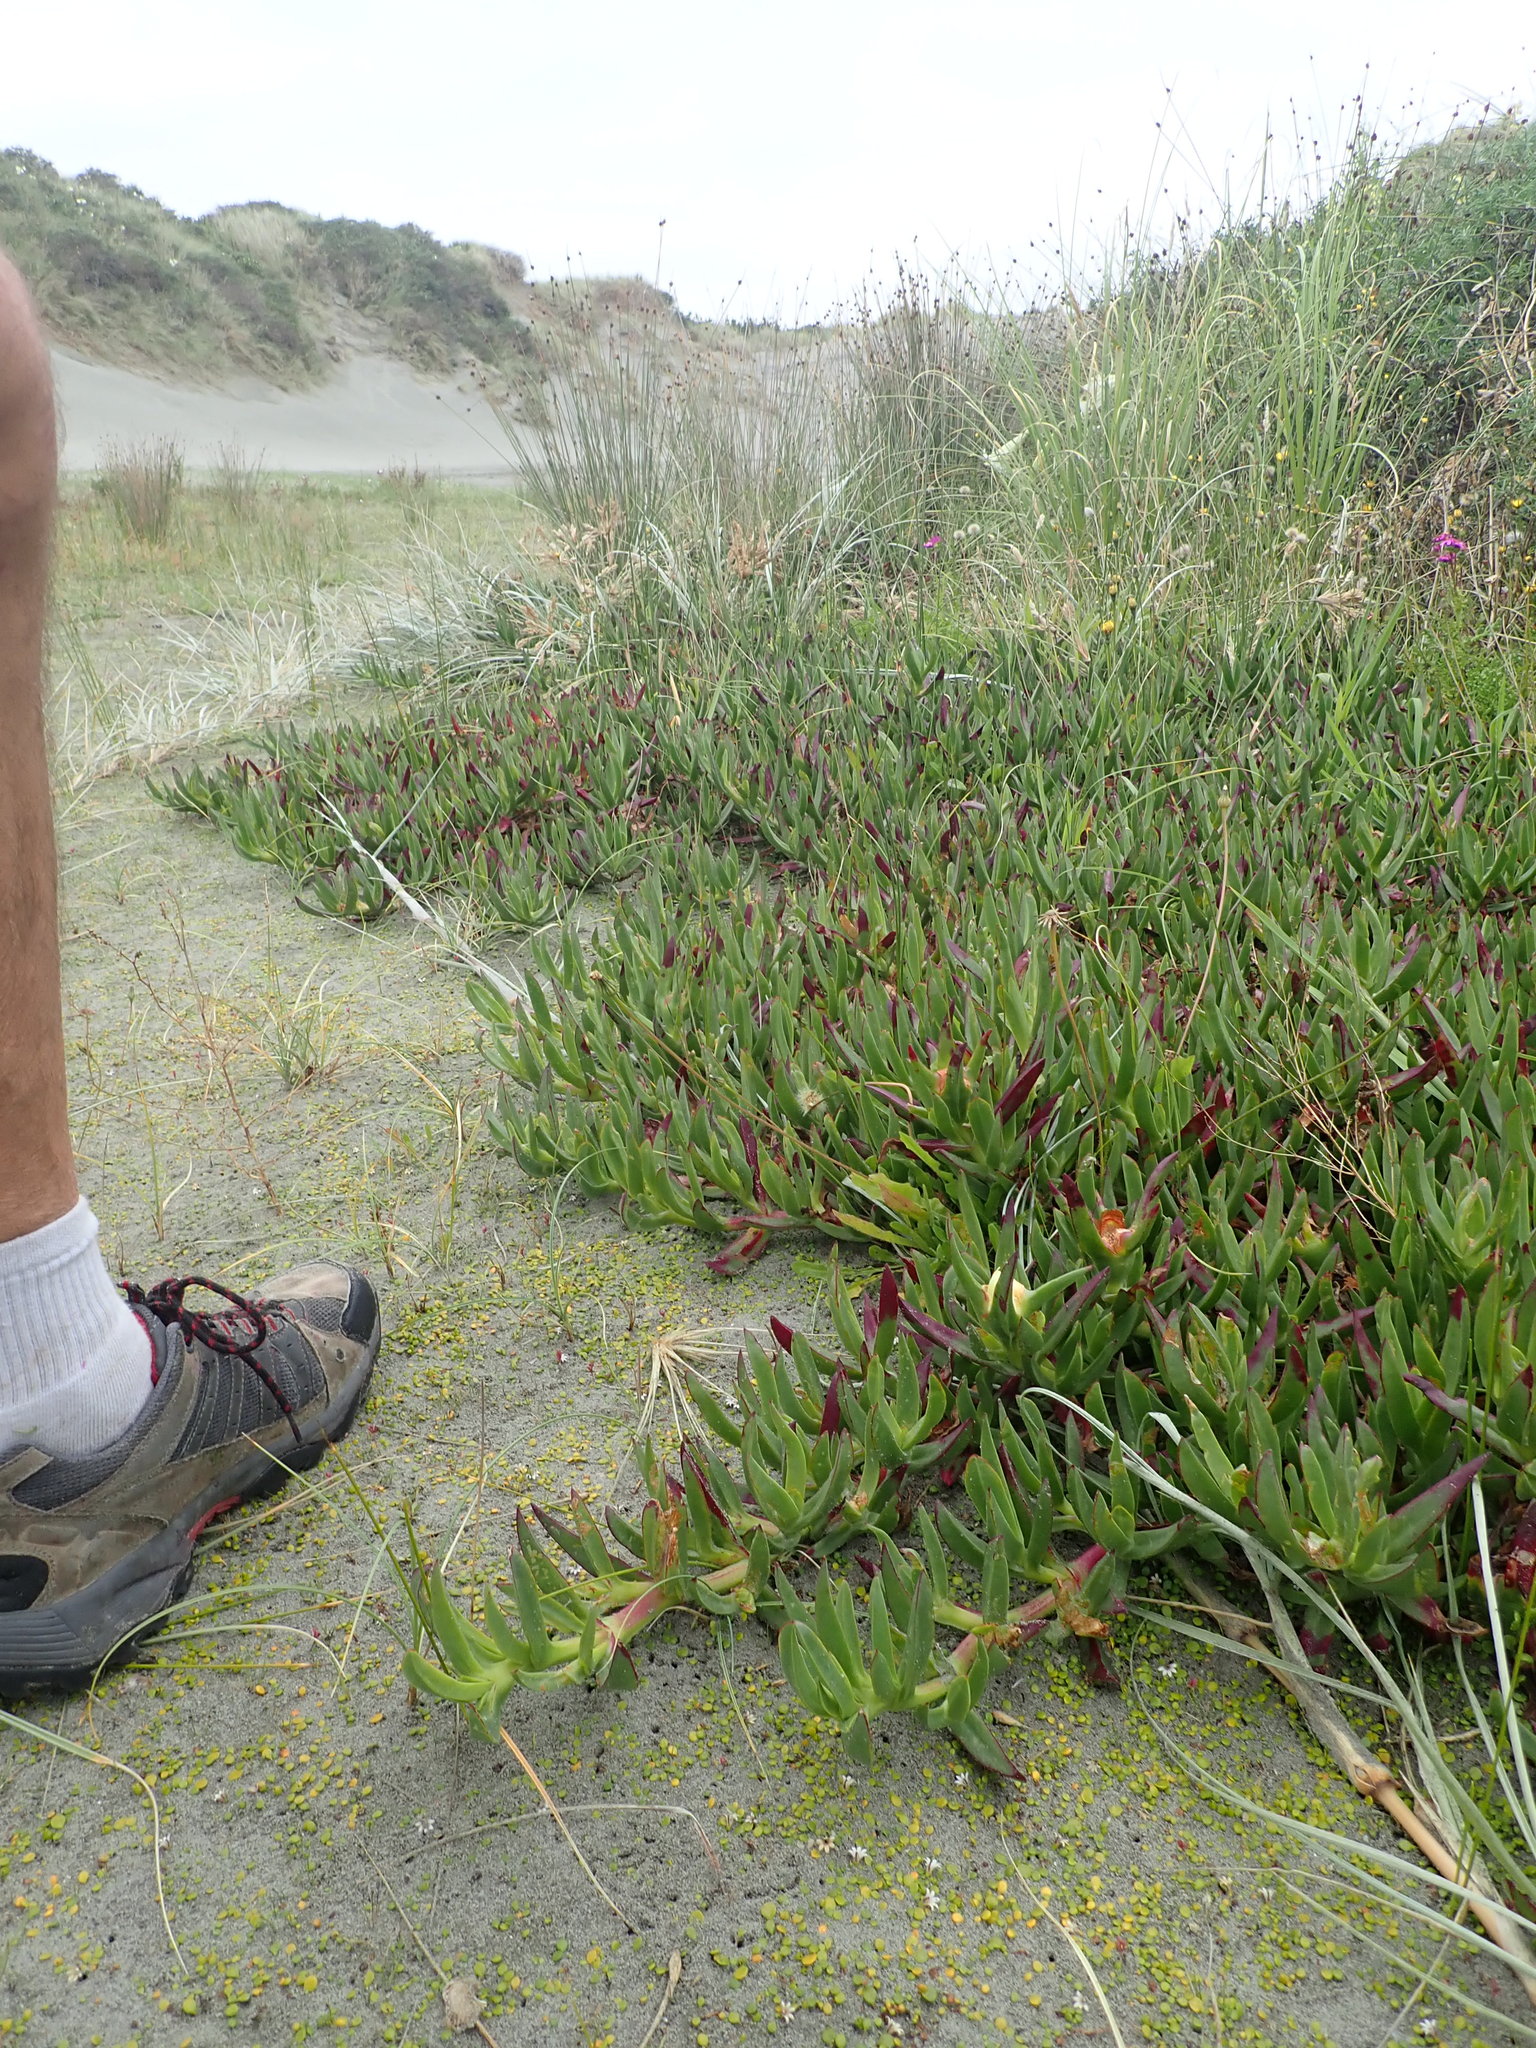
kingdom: Plantae
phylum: Tracheophyta
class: Magnoliopsida
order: Caryophyllales
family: Aizoaceae
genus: Carpobrotus
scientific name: Carpobrotus edulis
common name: Hottentot-fig
